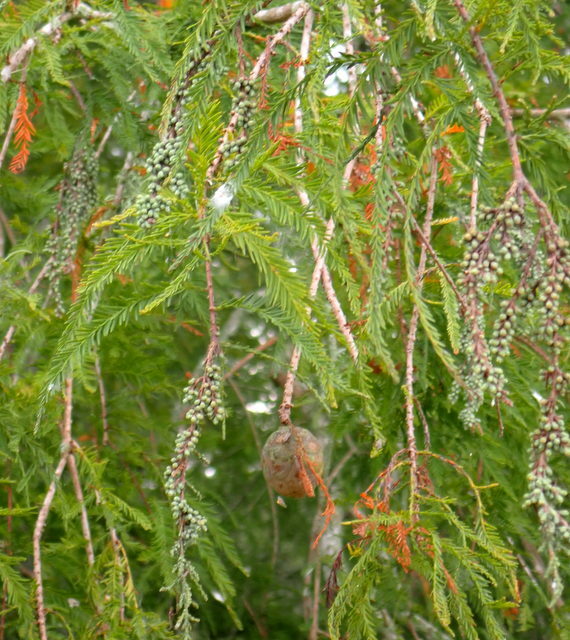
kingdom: Plantae
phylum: Tracheophyta
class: Pinopsida
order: Pinales
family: Cupressaceae
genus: Taxodium
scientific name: Taxodium distichum
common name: Bald cypress
